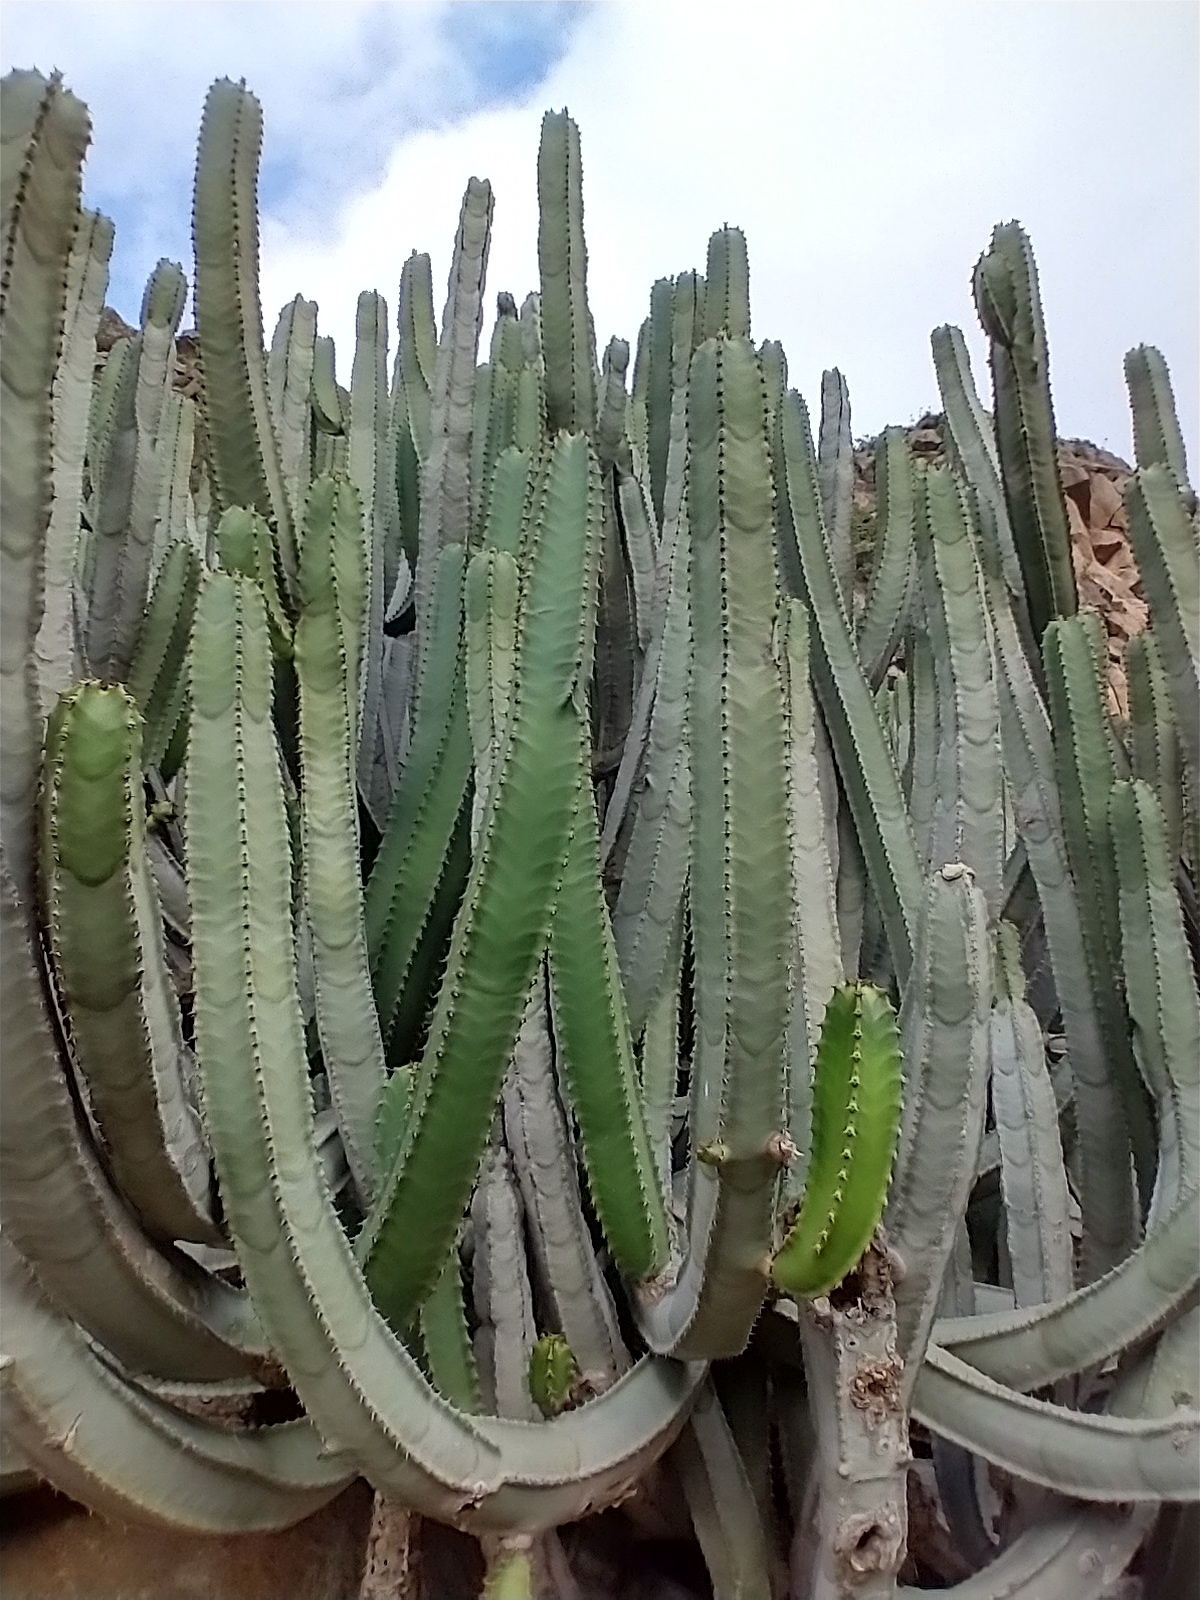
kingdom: Plantae
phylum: Tracheophyta
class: Magnoliopsida
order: Malpighiales
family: Euphorbiaceae
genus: Euphorbia
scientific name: Euphorbia canariensis
